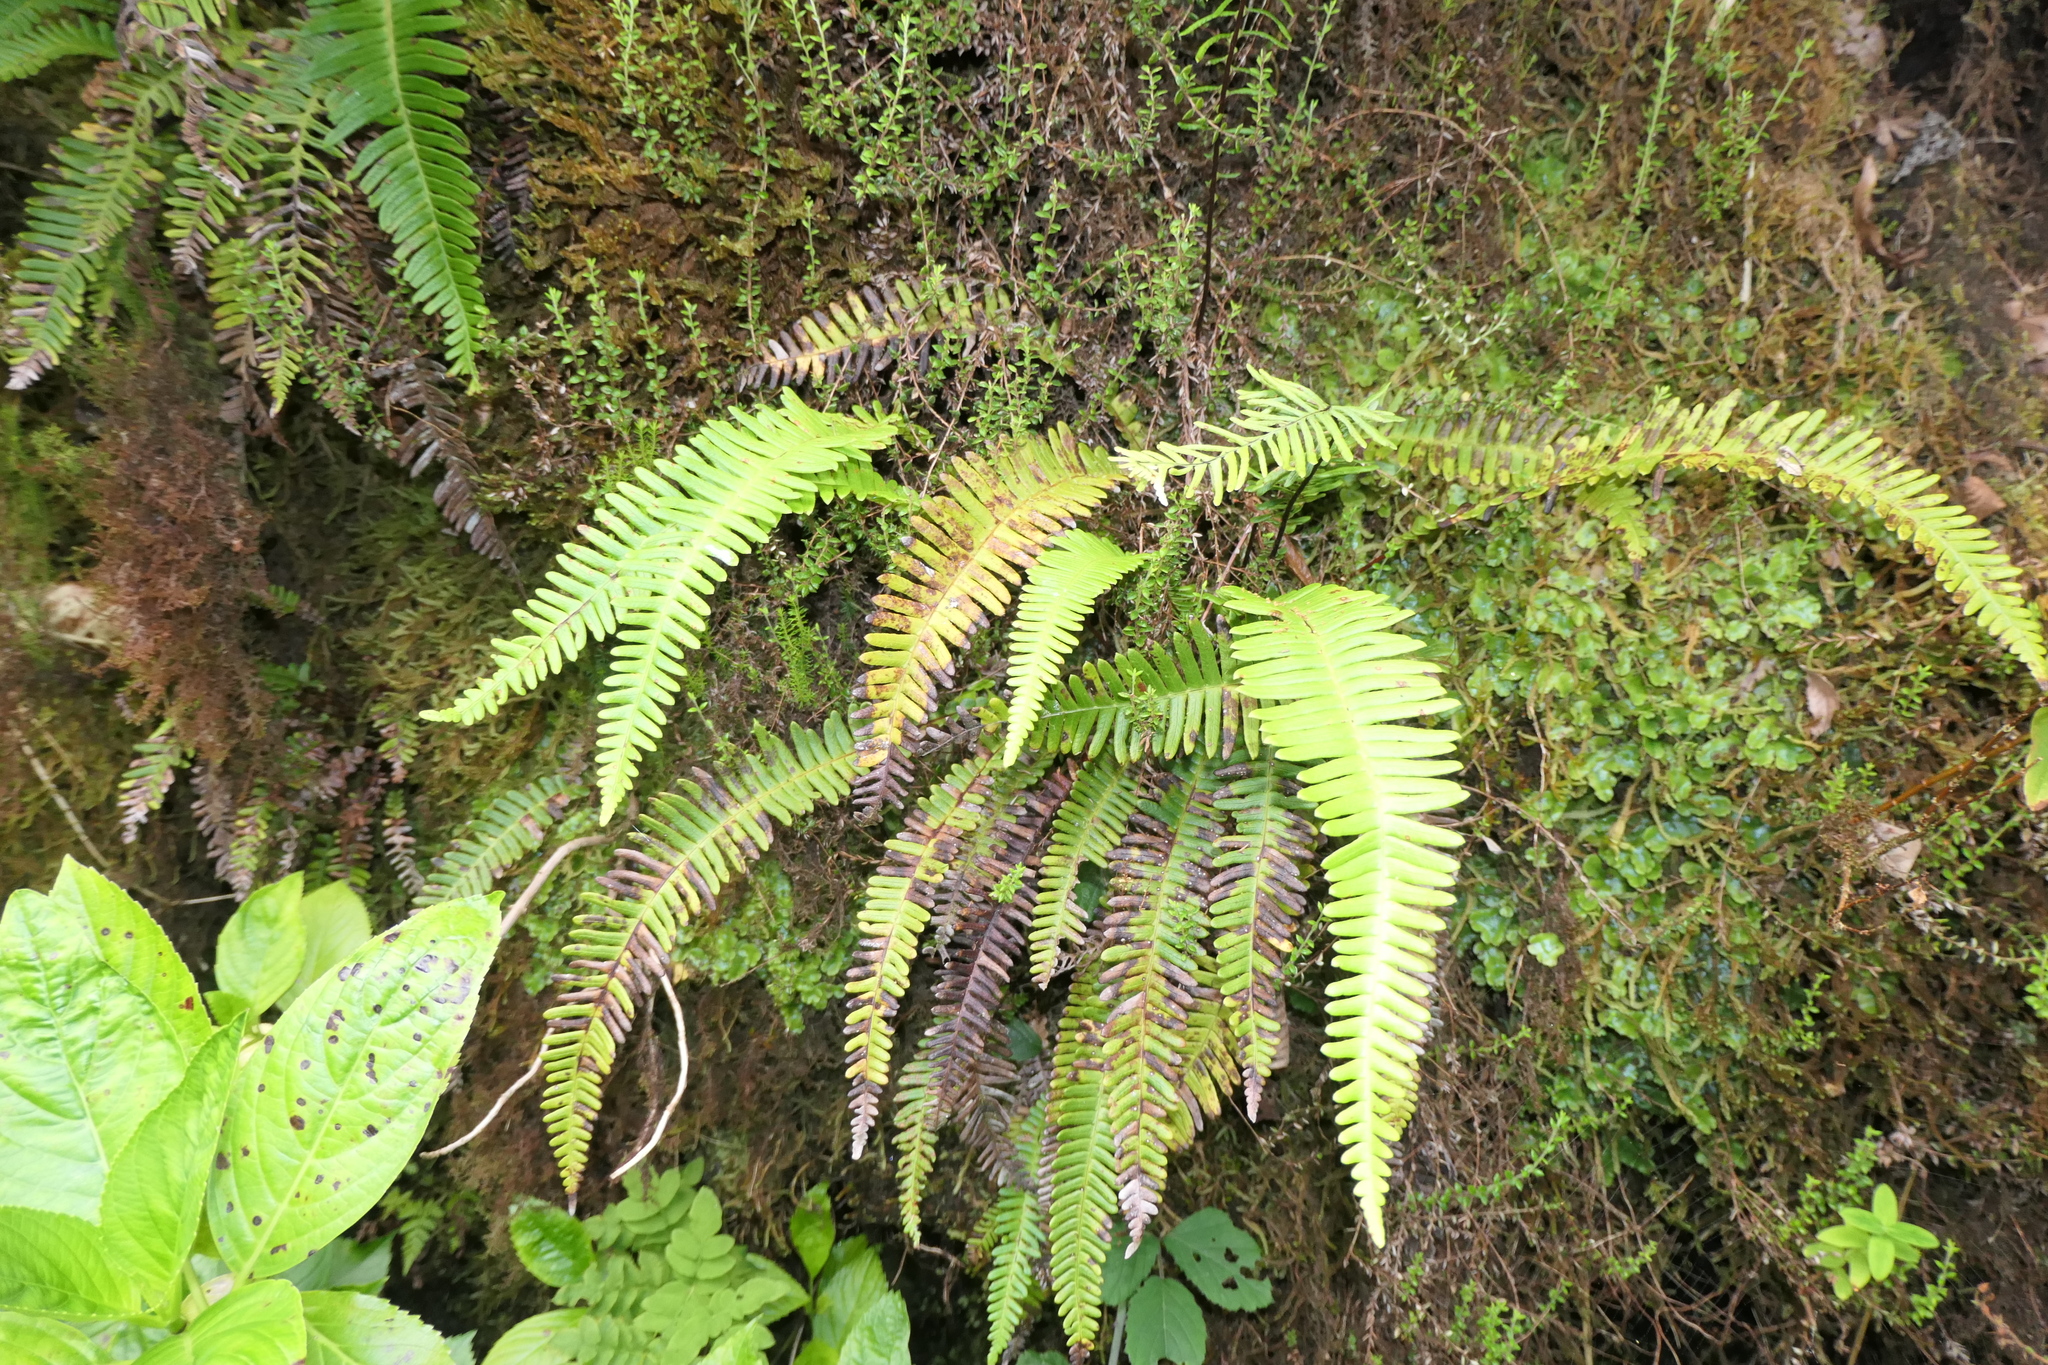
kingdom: Plantae
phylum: Tracheophyta
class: Polypodiopsida
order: Polypodiales
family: Blechnaceae
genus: Struthiopteris
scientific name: Struthiopteris spicant
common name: Deer fern
